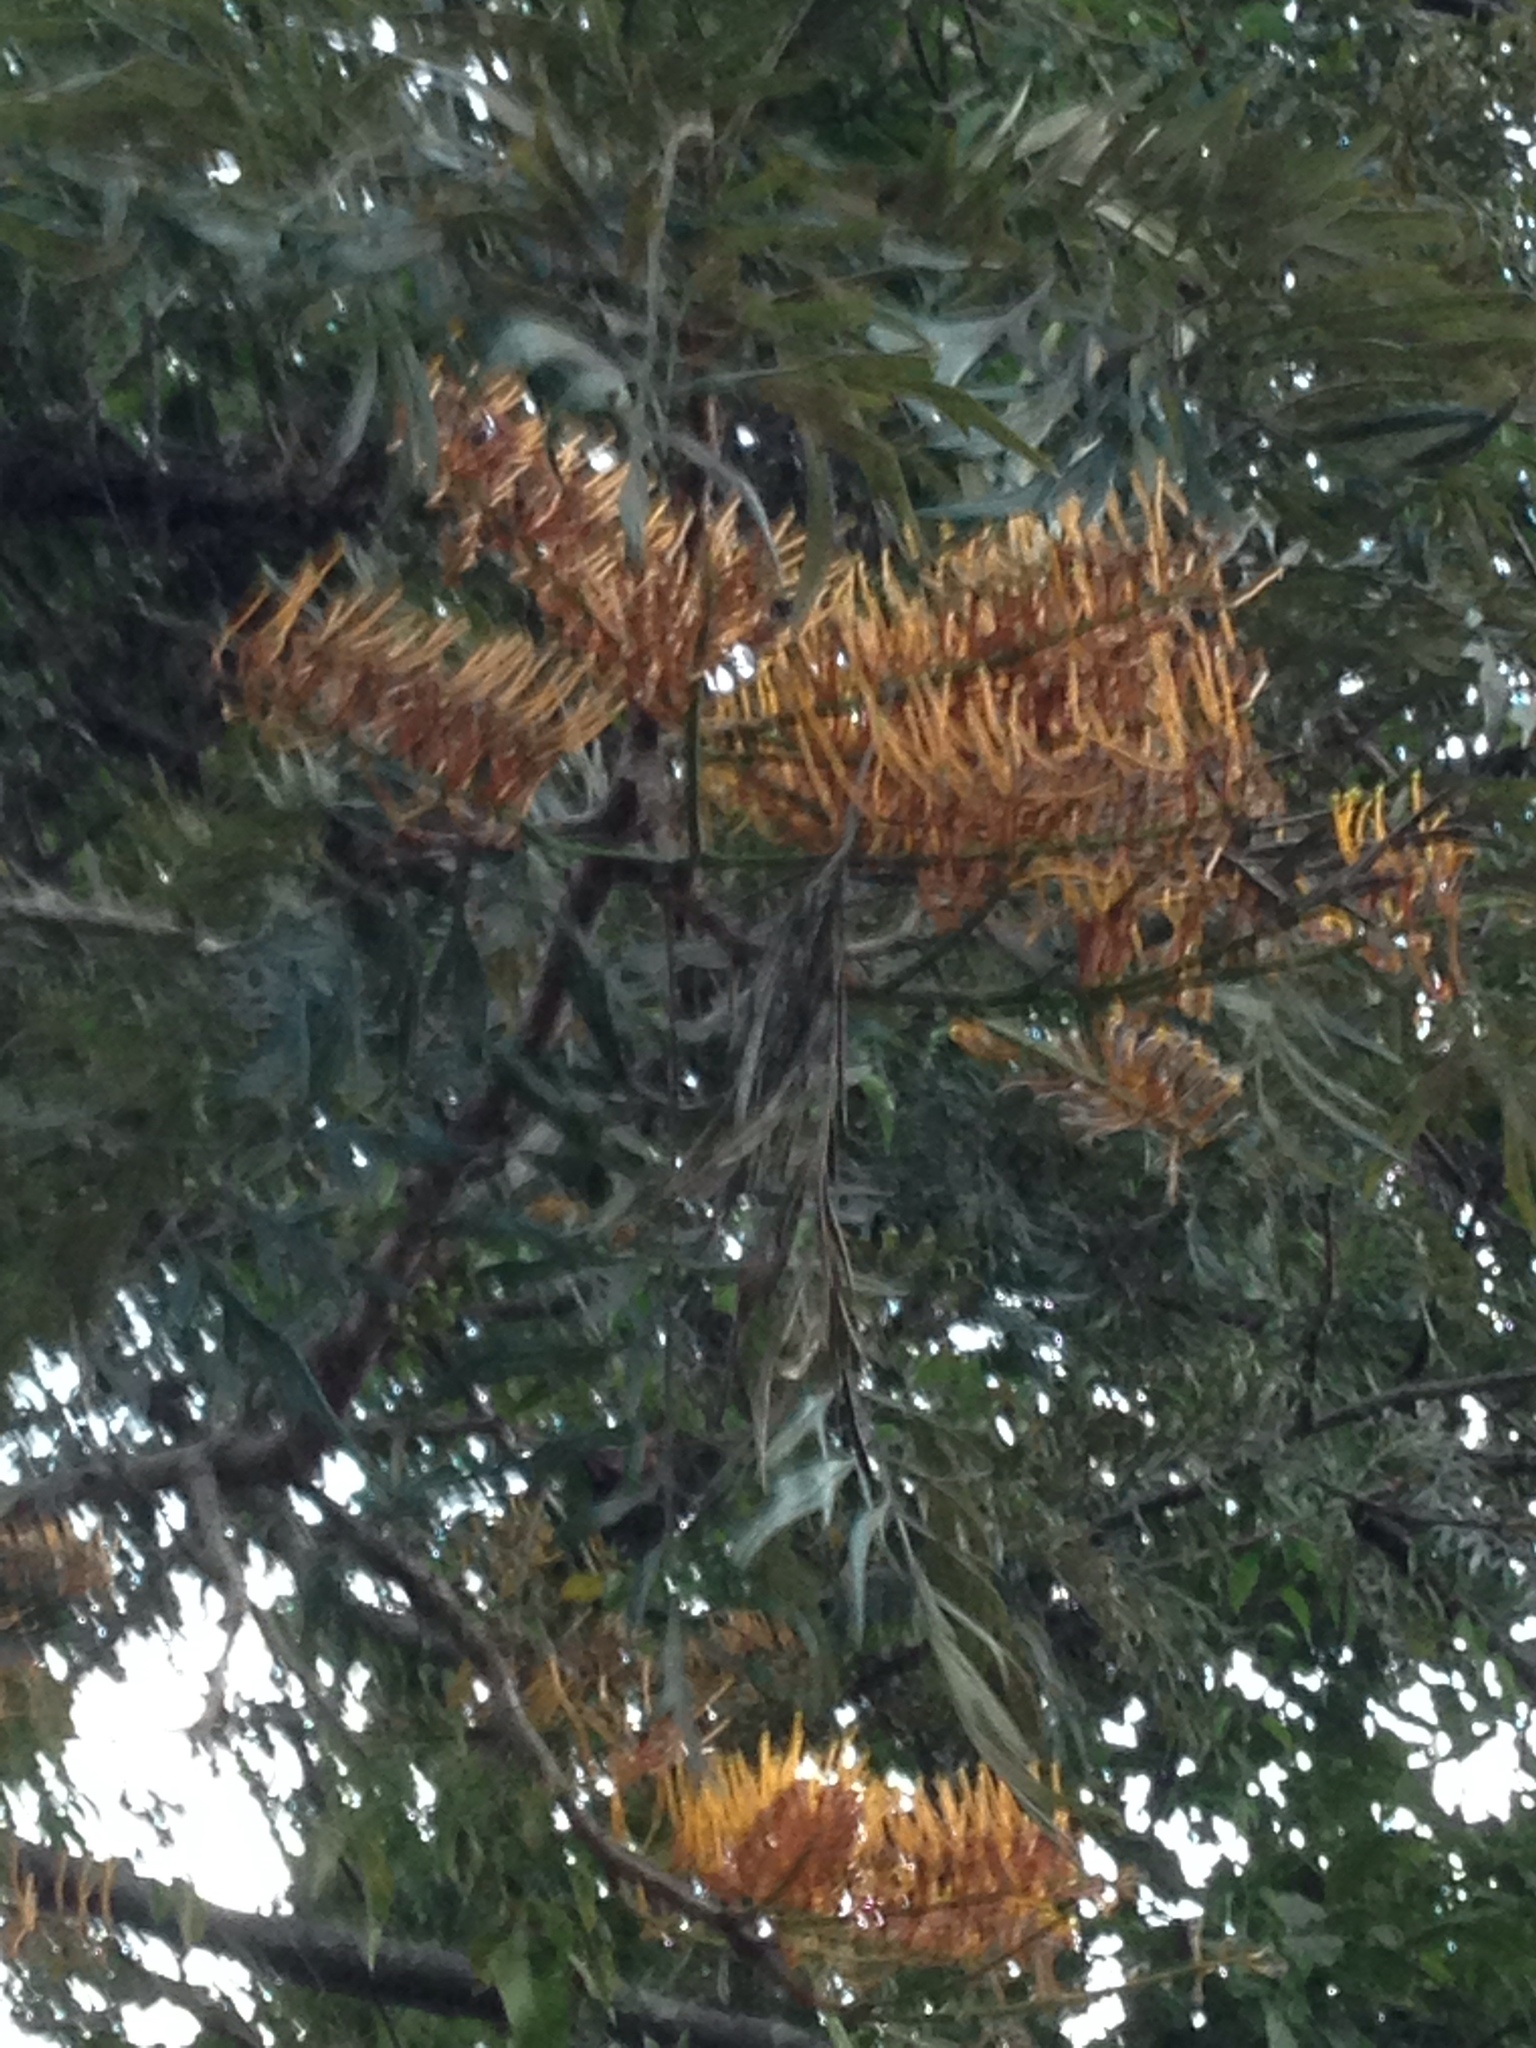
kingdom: Plantae
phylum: Tracheophyta
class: Magnoliopsida
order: Proteales
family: Proteaceae
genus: Grevillea
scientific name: Grevillea robusta
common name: Silkoak
